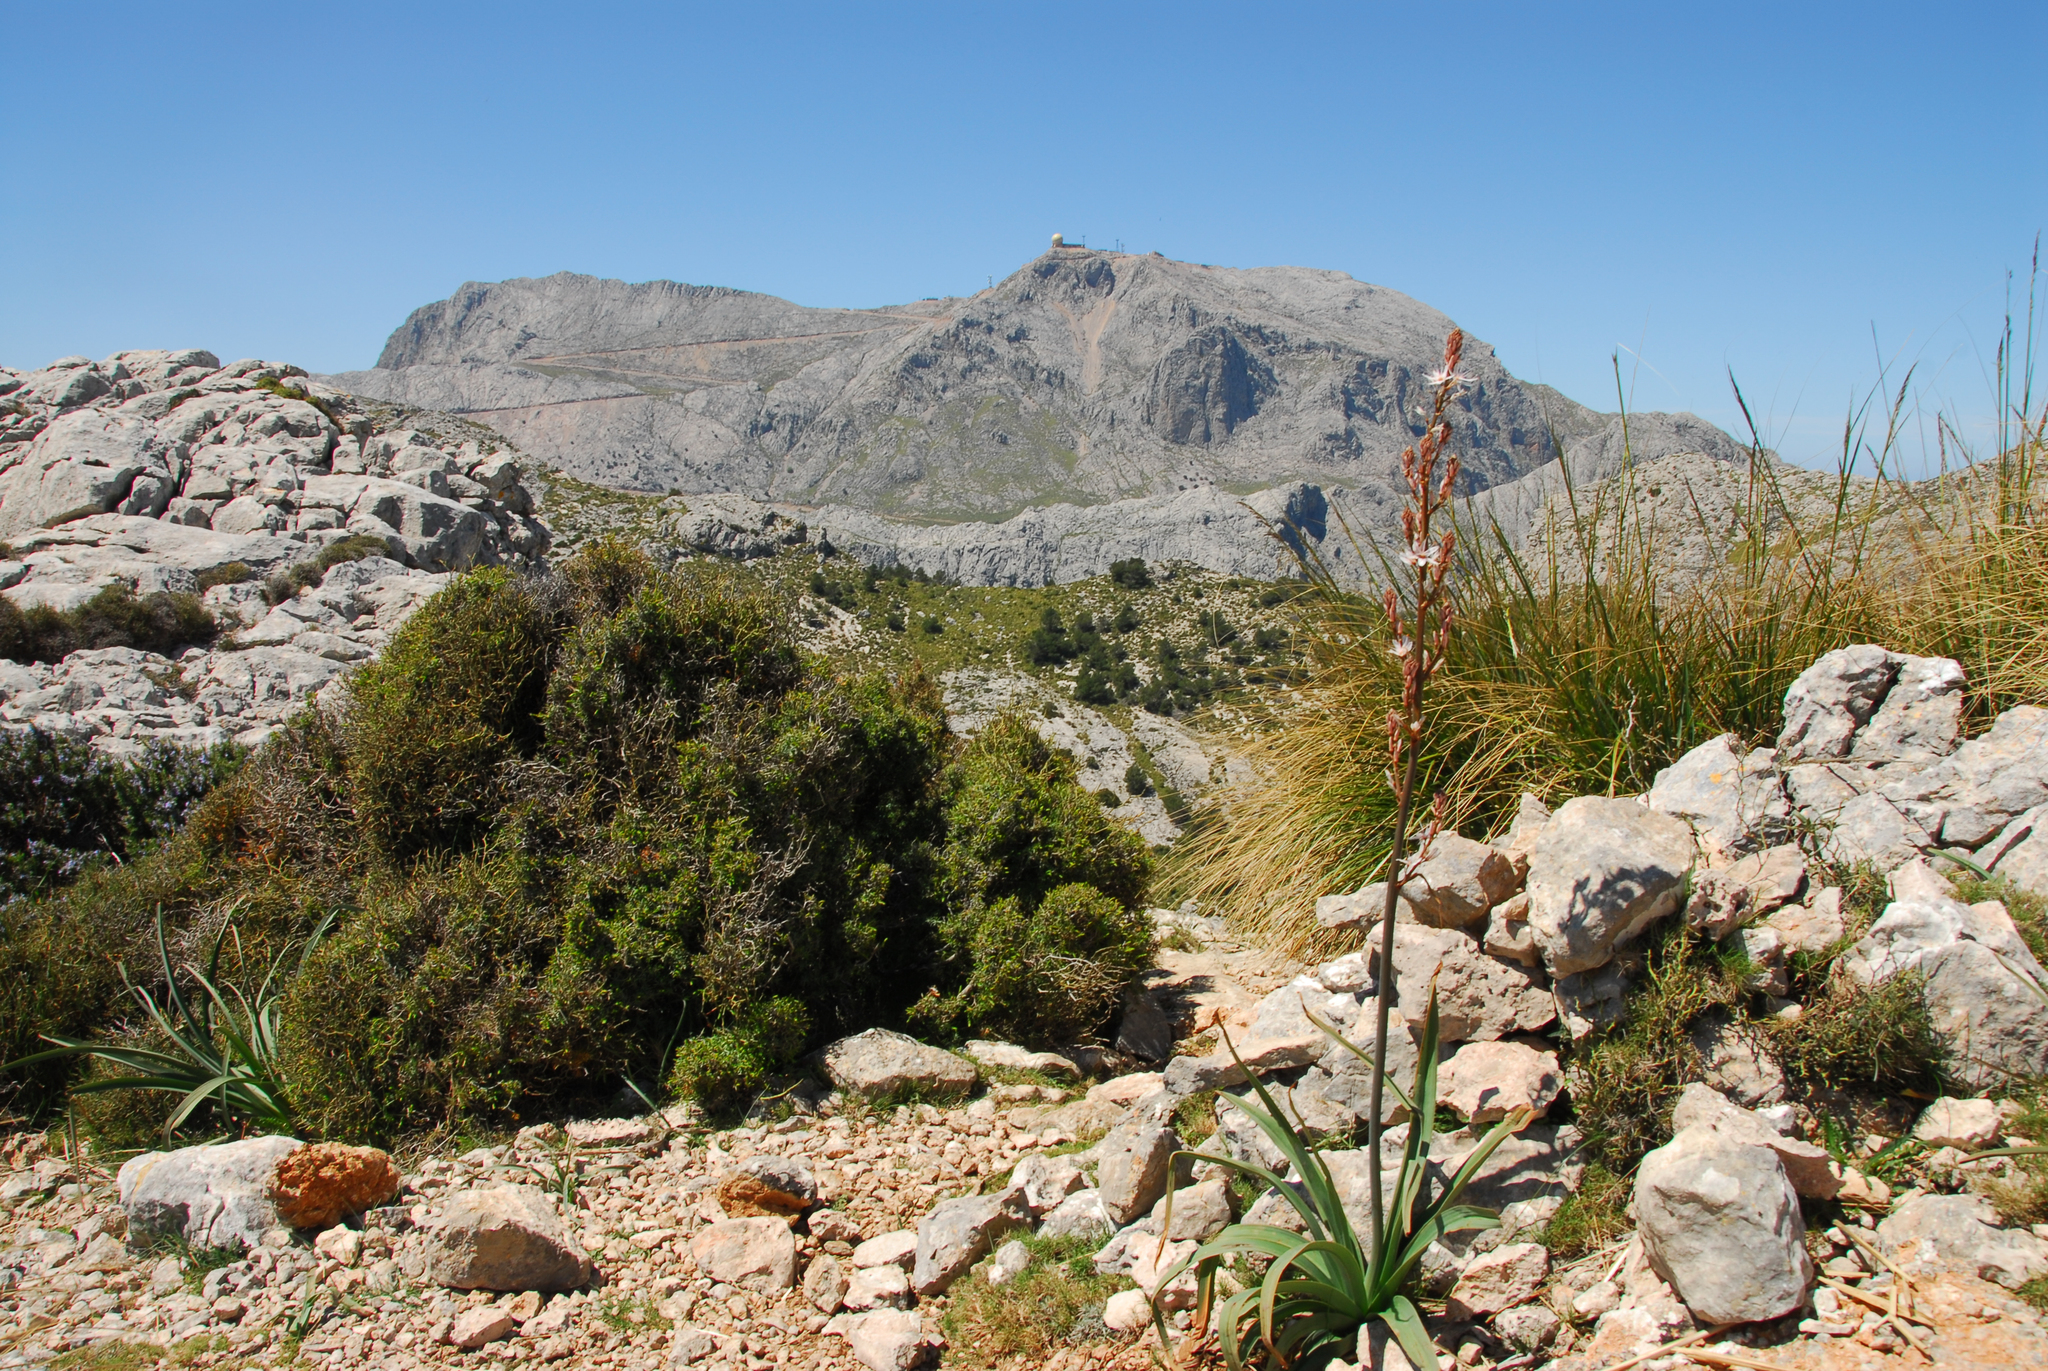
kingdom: Plantae
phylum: Tracheophyta
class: Liliopsida
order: Asparagales
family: Asphodelaceae
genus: Asphodelus
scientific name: Asphodelus ramosus
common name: Silverrod
